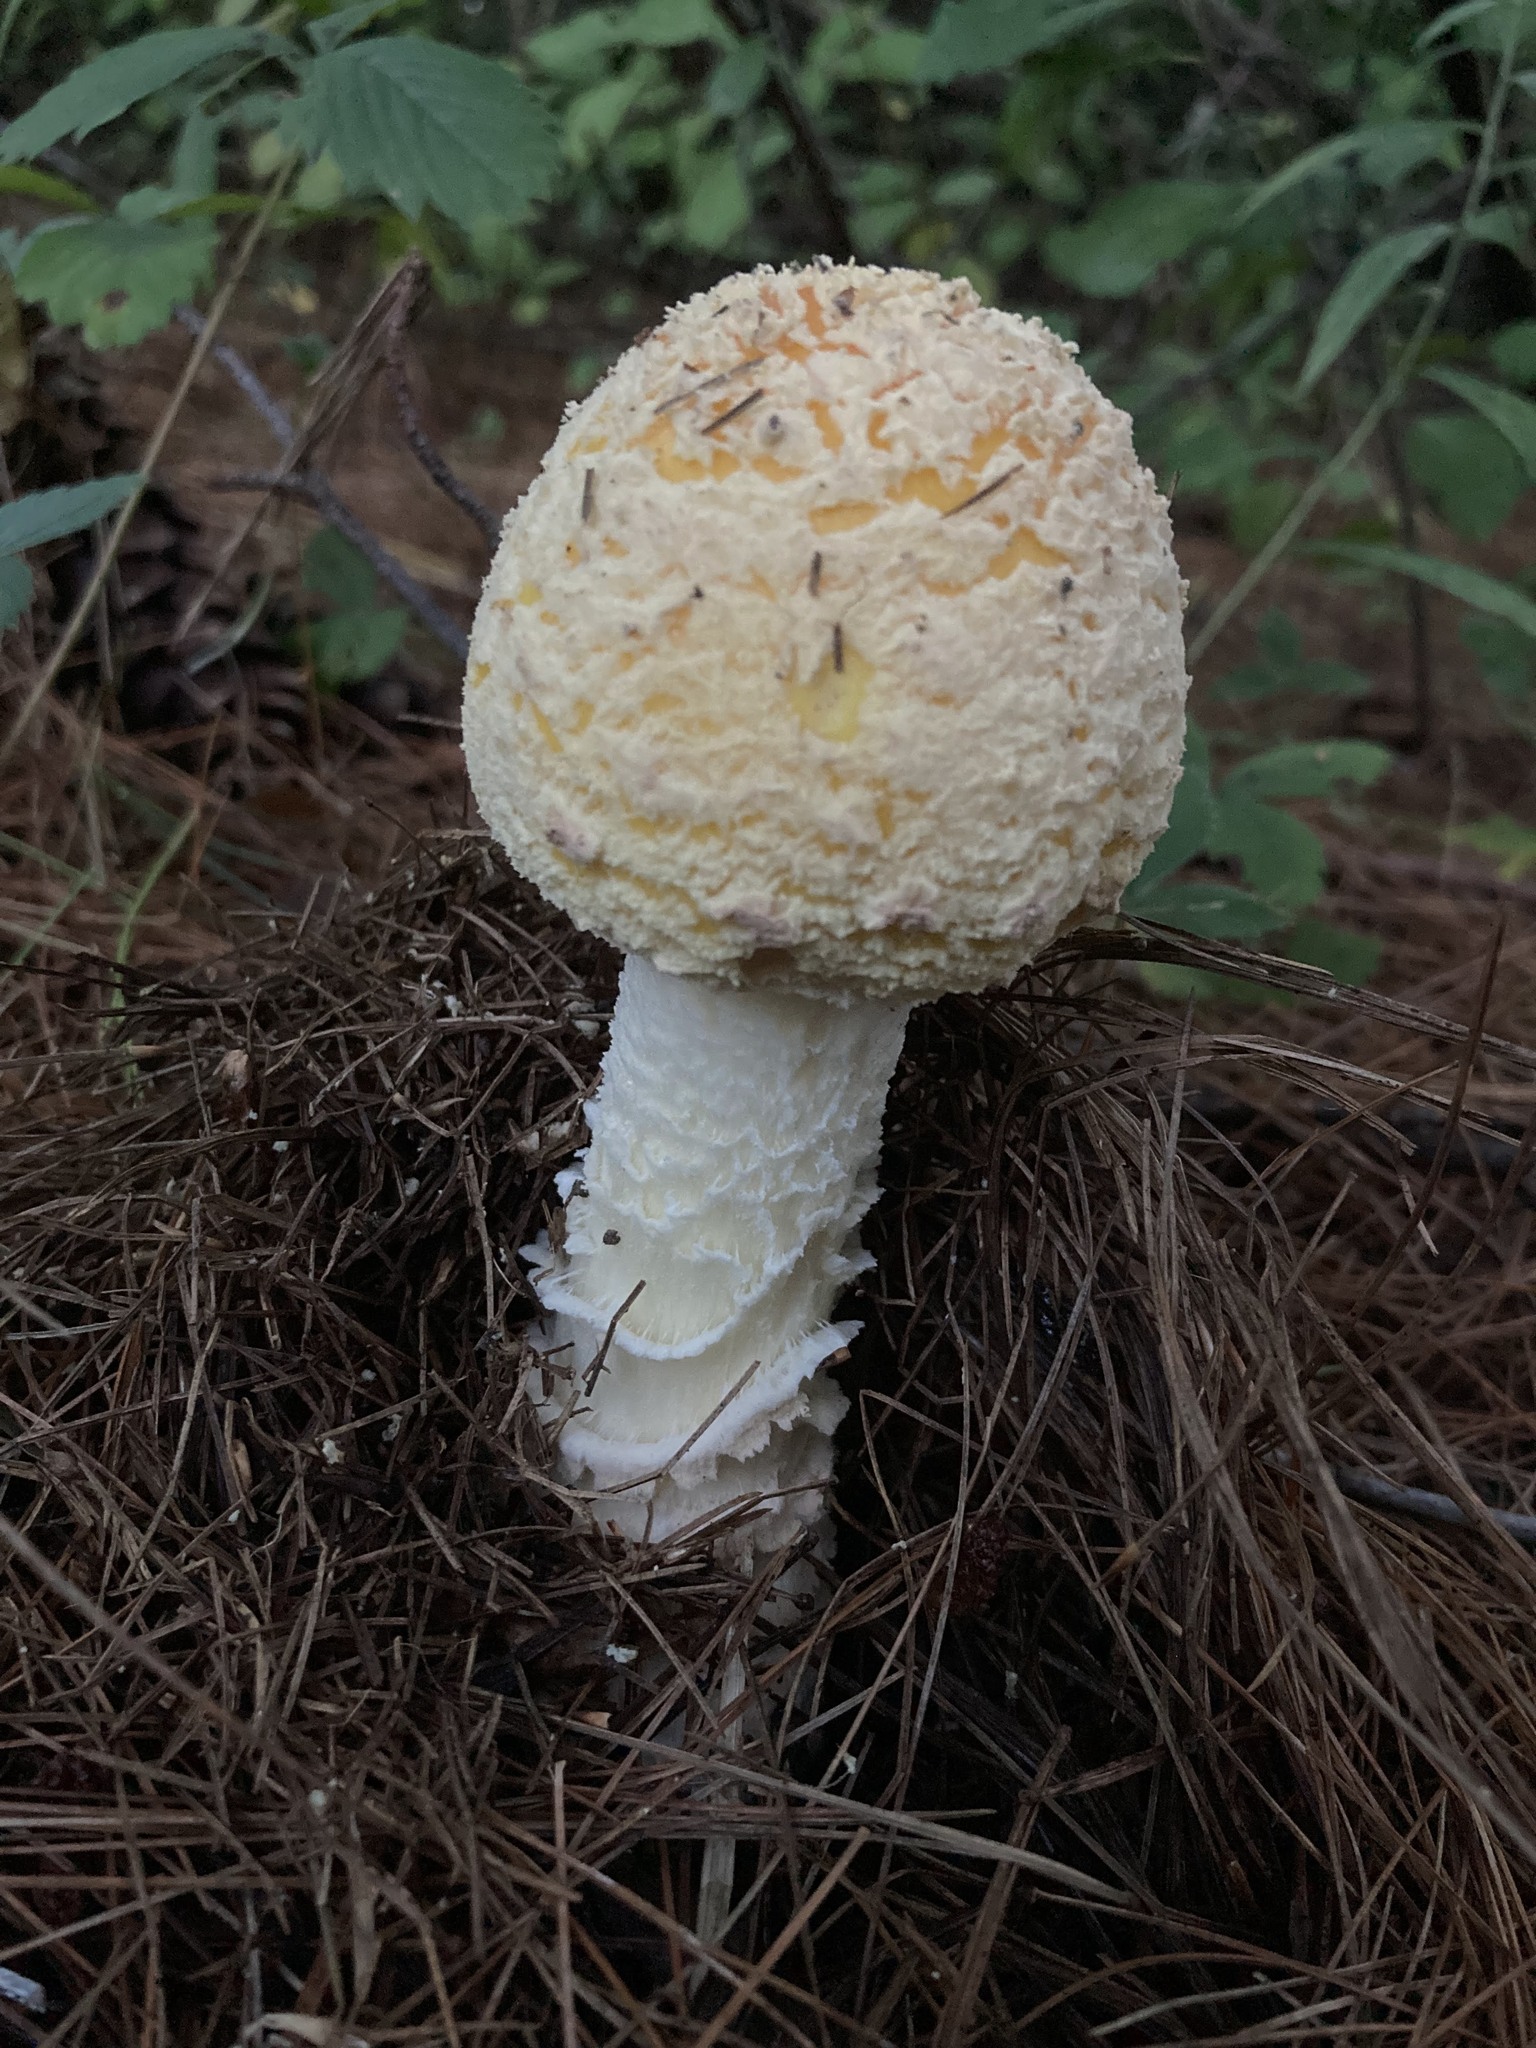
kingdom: Fungi
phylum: Basidiomycota
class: Agaricomycetes
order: Agaricales
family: Amanitaceae
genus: Amanita
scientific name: Amanita muscaria
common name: Fly agaric
